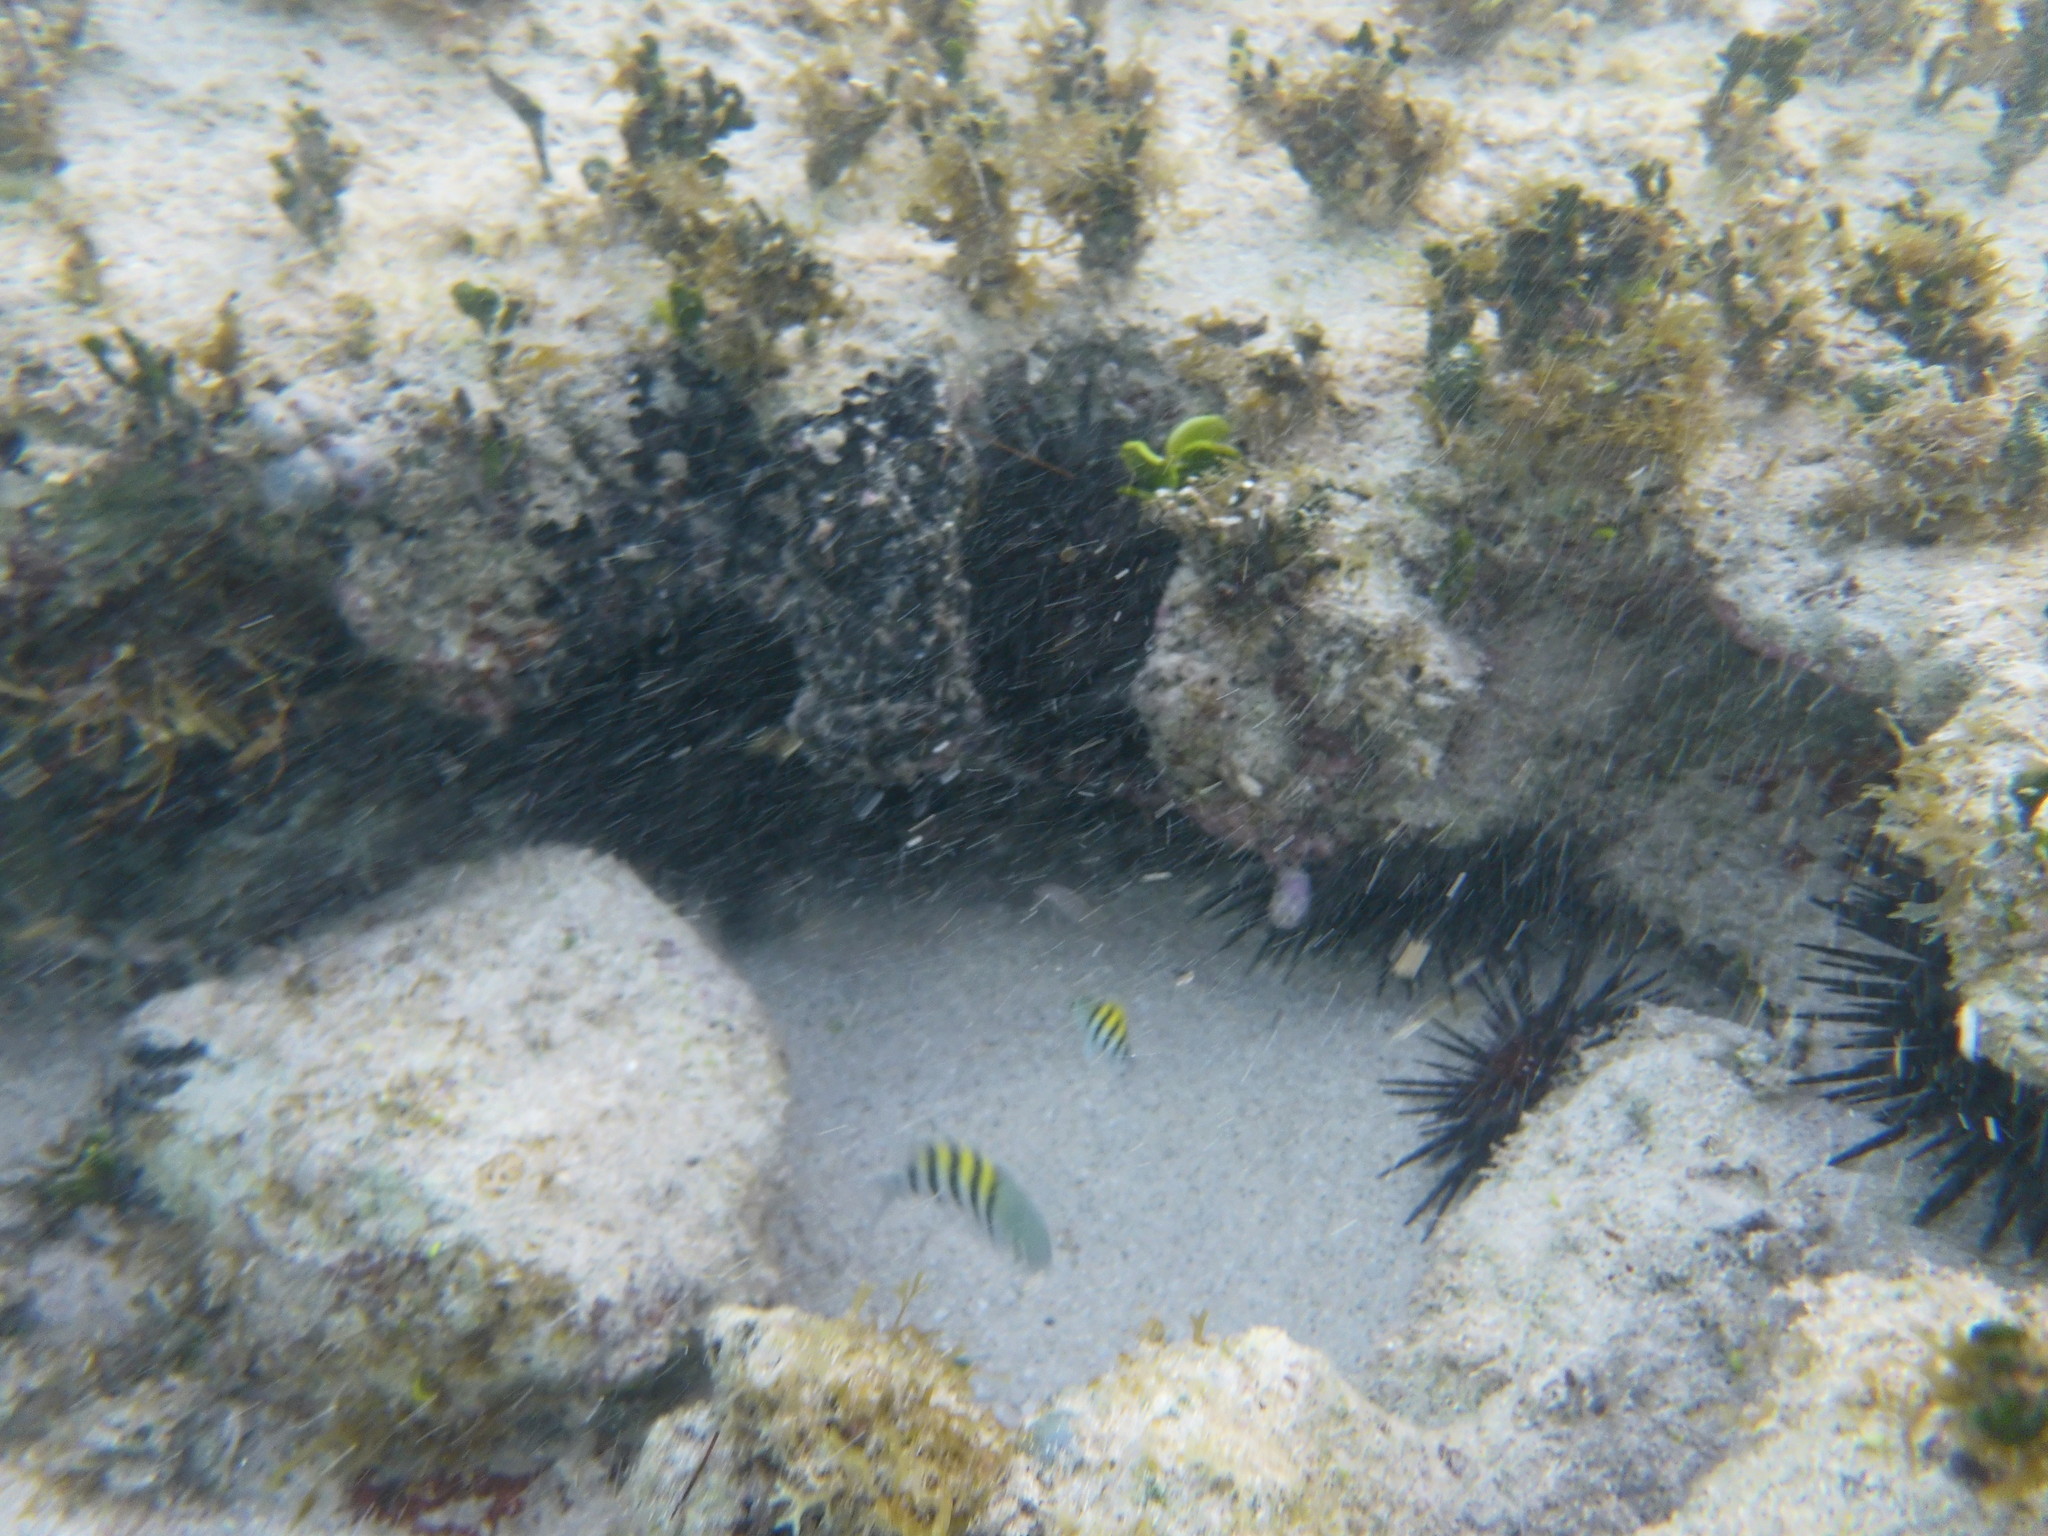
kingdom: Animalia
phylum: Chordata
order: Perciformes
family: Pomacentridae
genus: Abudefduf
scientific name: Abudefduf saxatilis
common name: Sergeant major
